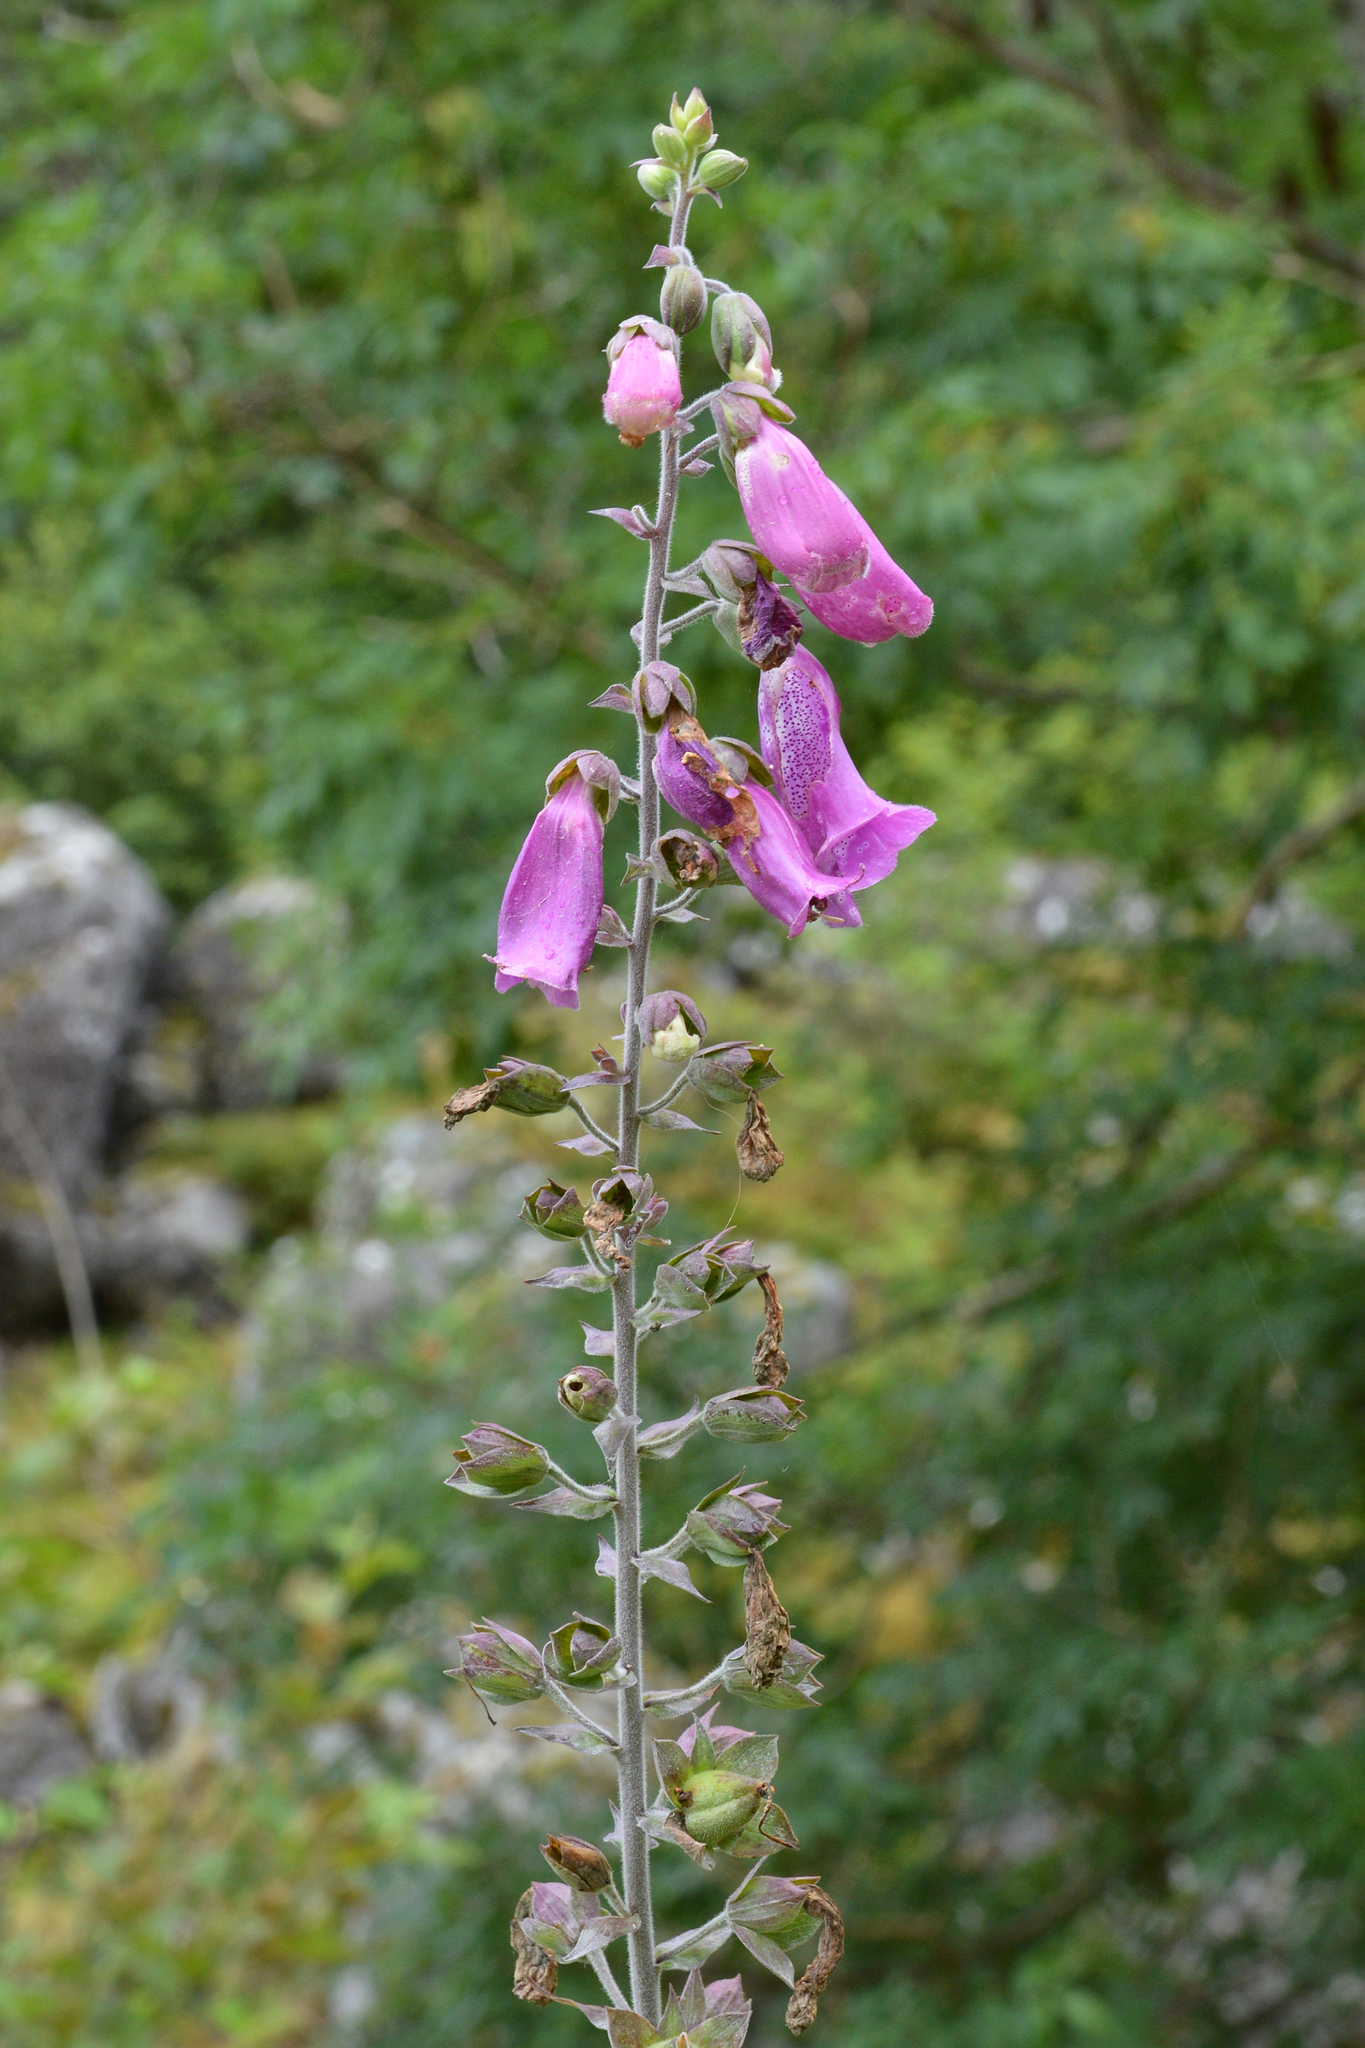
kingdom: Plantae
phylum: Tracheophyta
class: Magnoliopsida
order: Lamiales
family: Plantaginaceae
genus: Digitalis
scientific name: Digitalis purpurea
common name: Foxglove
